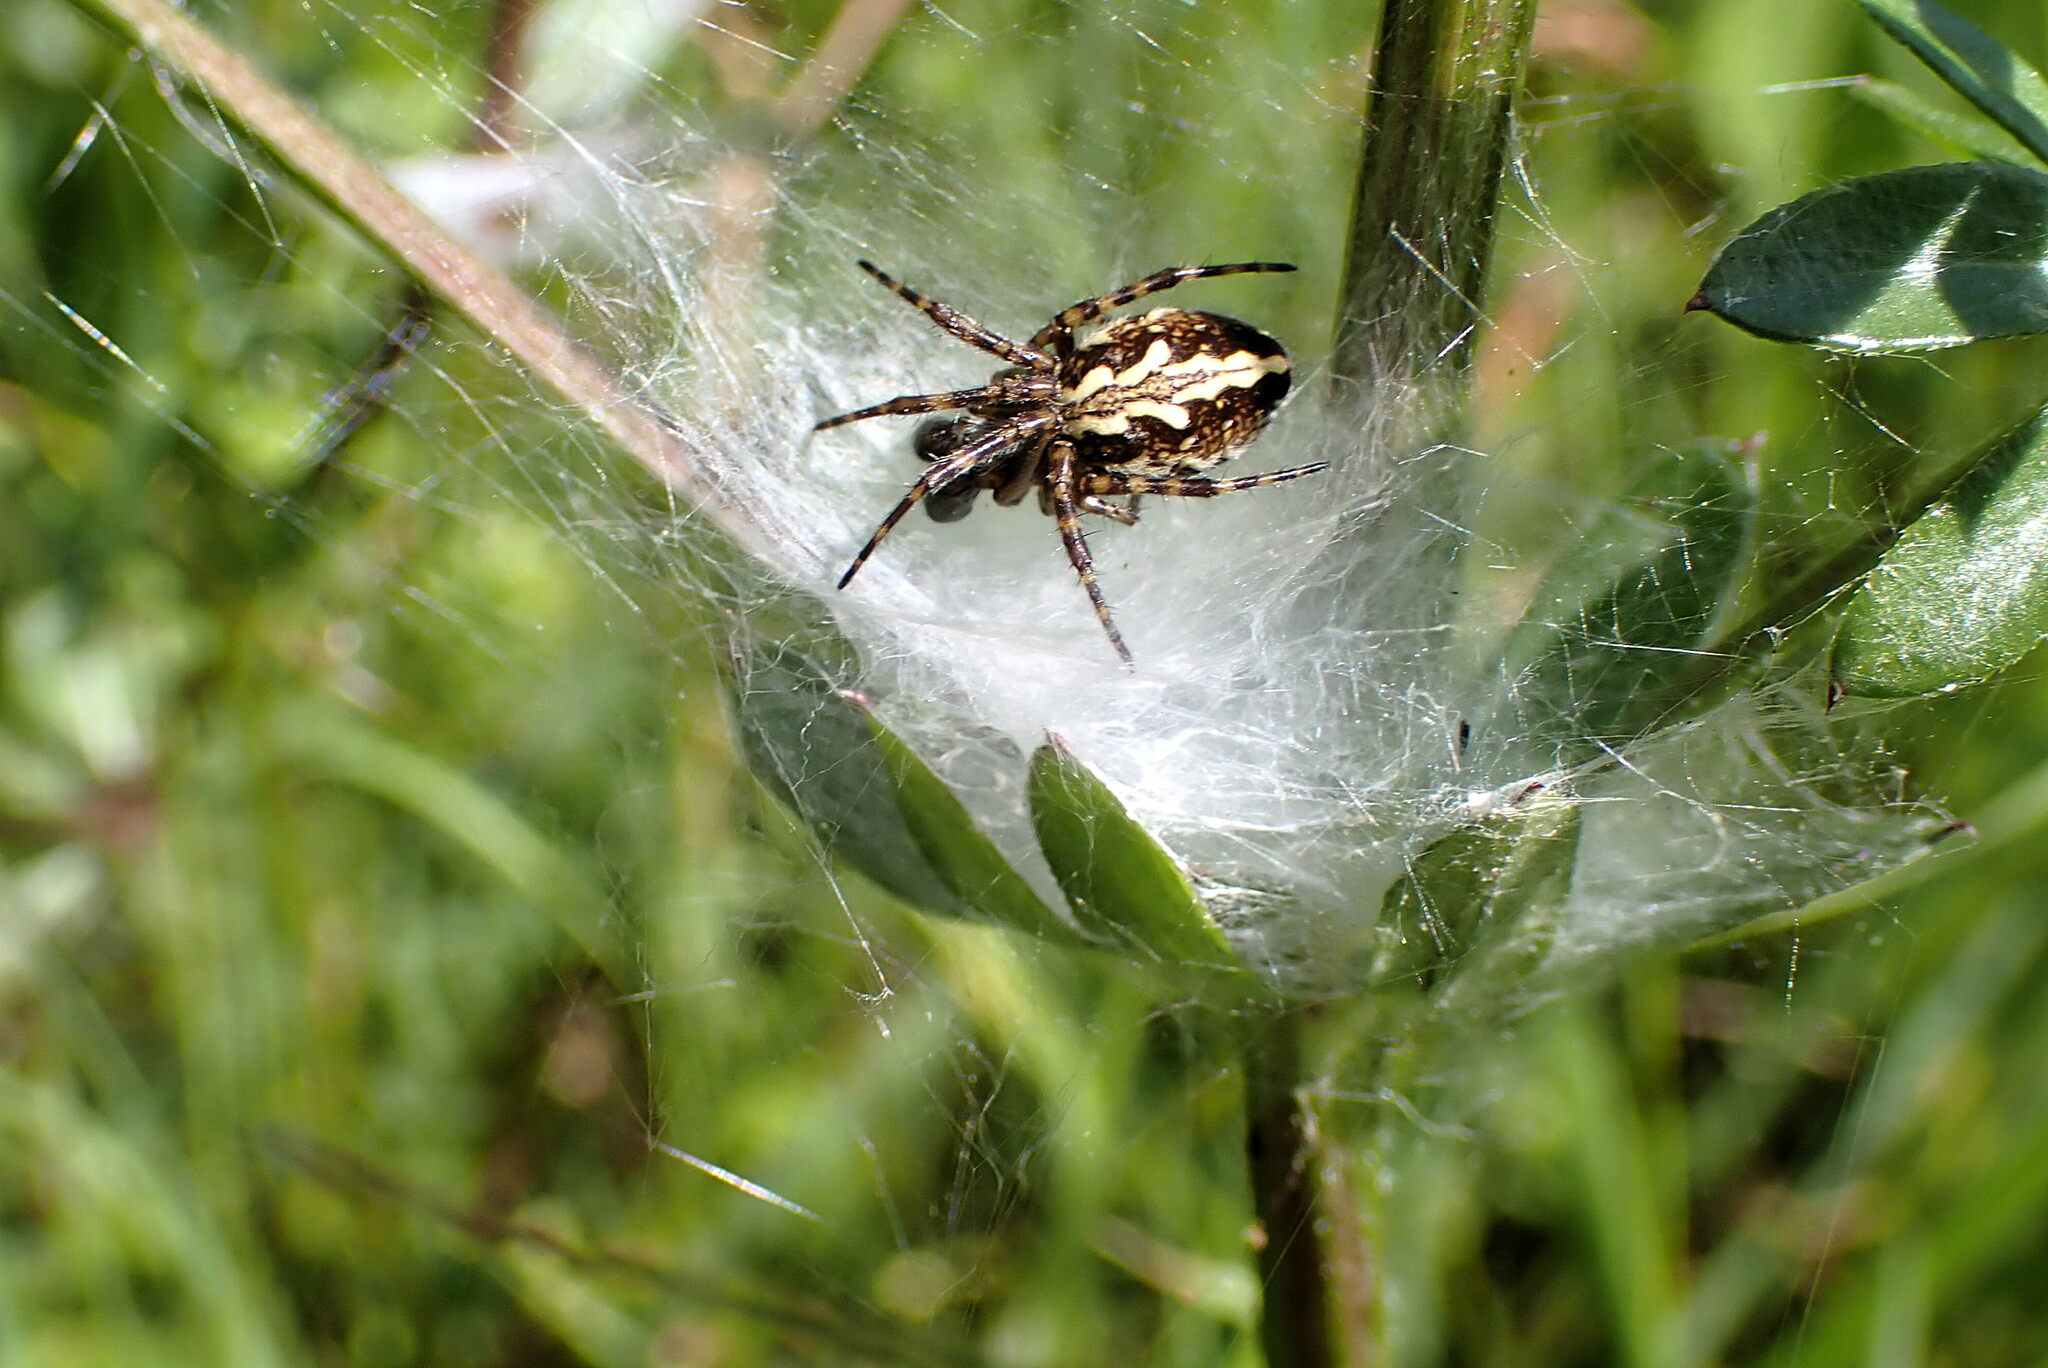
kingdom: Animalia
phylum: Arthropoda
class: Arachnida
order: Araneae
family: Araneidae
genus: Aculepeira
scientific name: Aculepeira ceropegia
